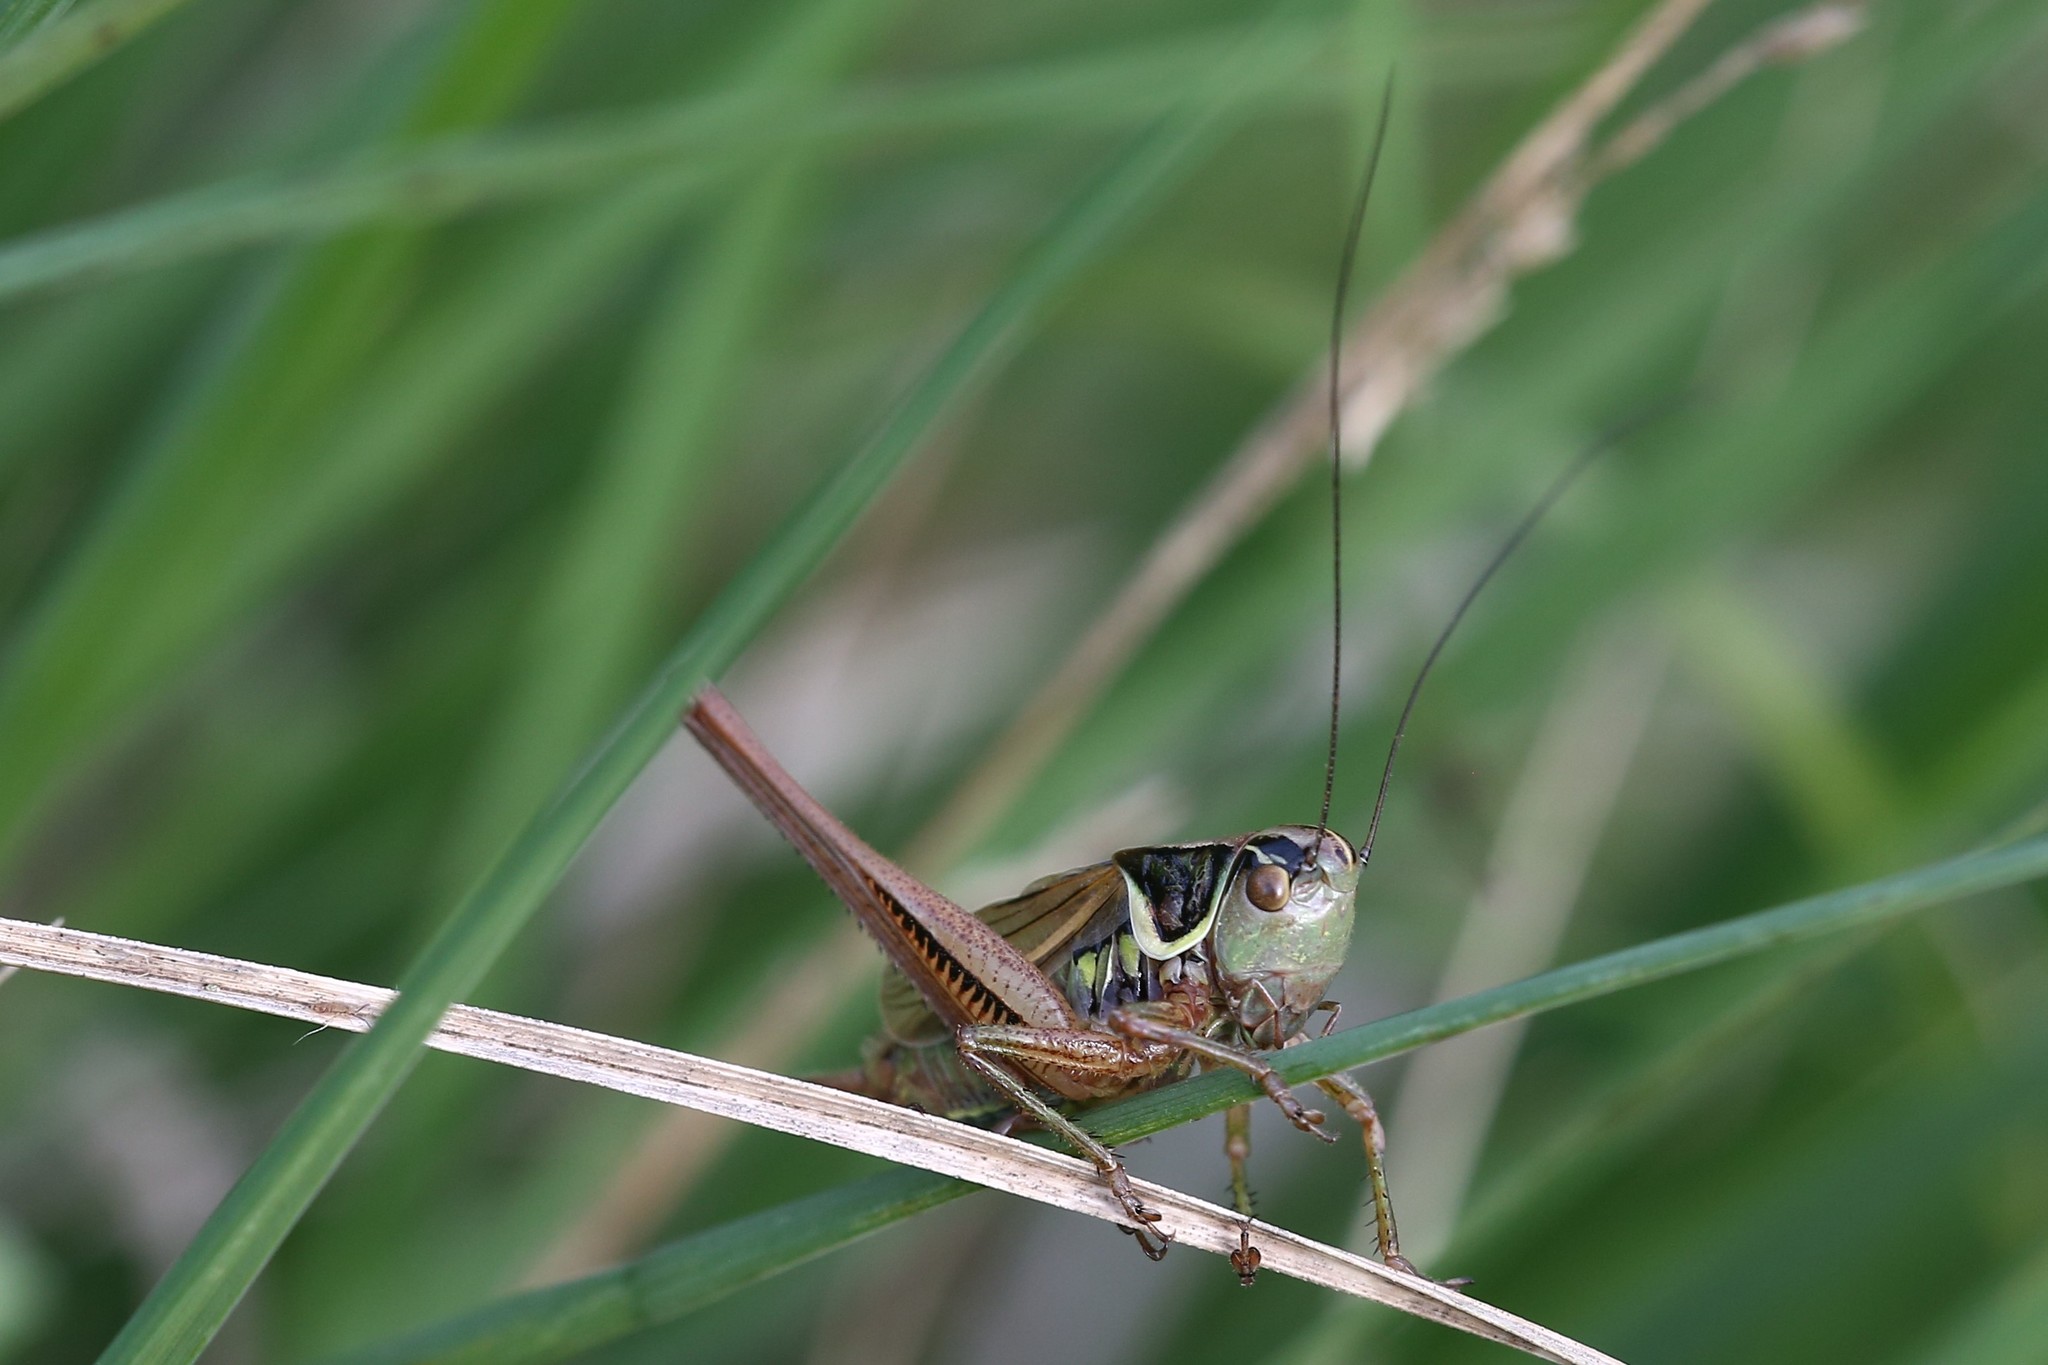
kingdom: Animalia
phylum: Arthropoda
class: Insecta
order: Orthoptera
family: Tettigoniidae
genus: Roeseliana
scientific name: Roeseliana roeselii
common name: Roesel's bush cricket
